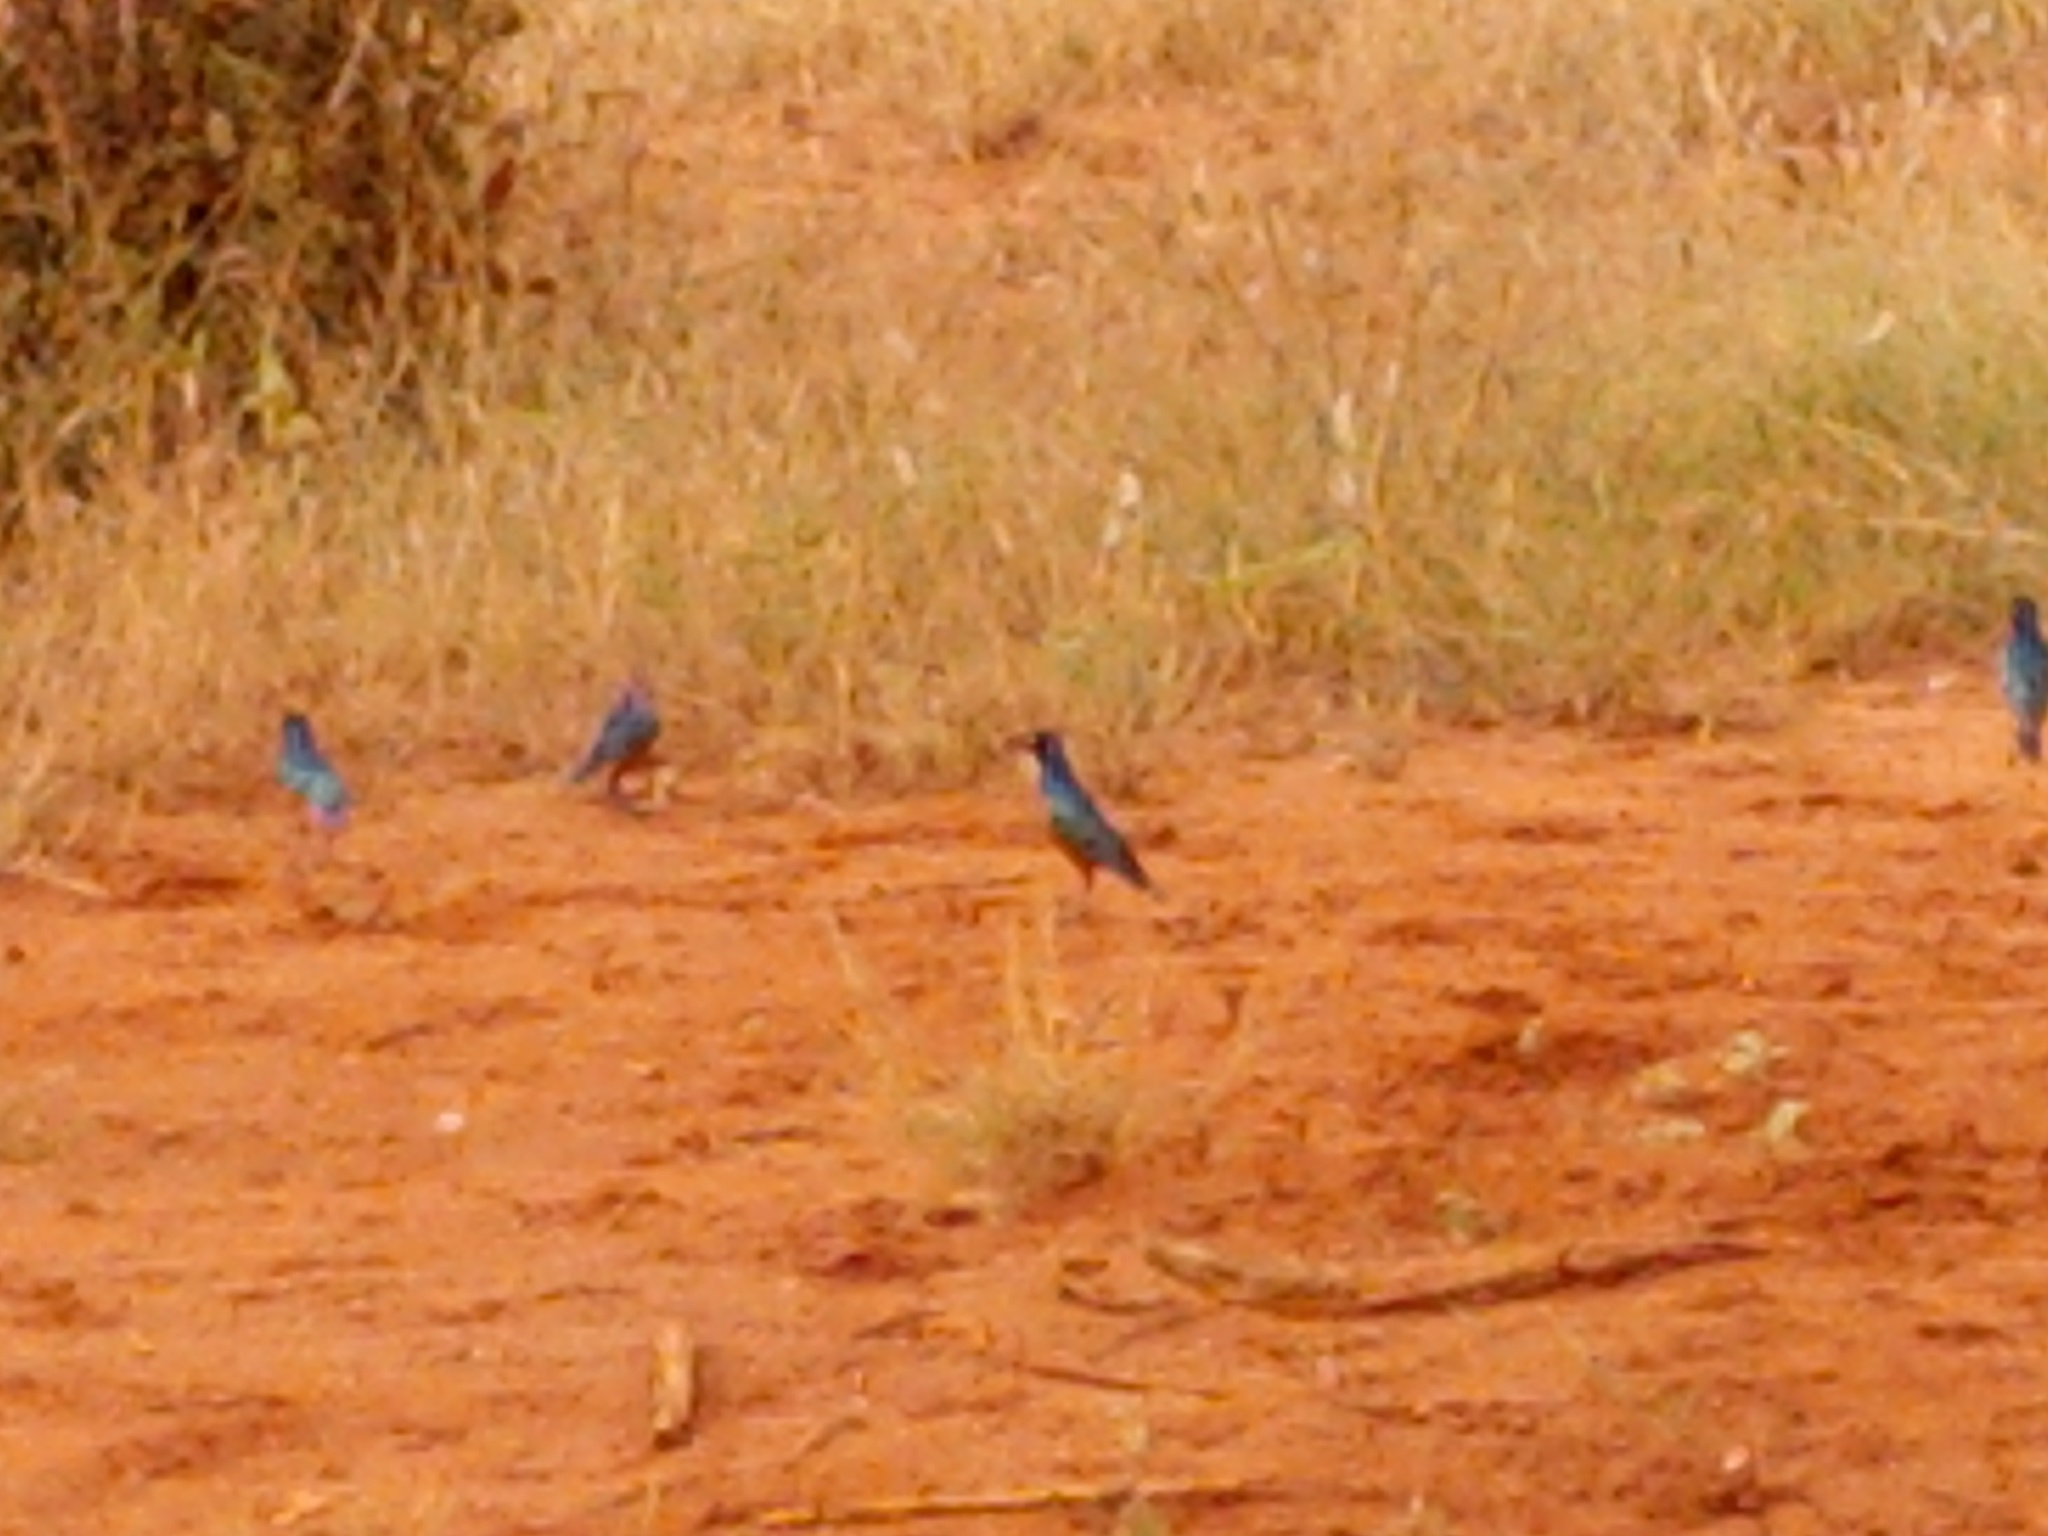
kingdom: Animalia
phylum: Chordata
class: Aves
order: Passeriformes
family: Sturnidae
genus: Lamprotornis
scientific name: Lamprotornis superbus
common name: Superb starling
